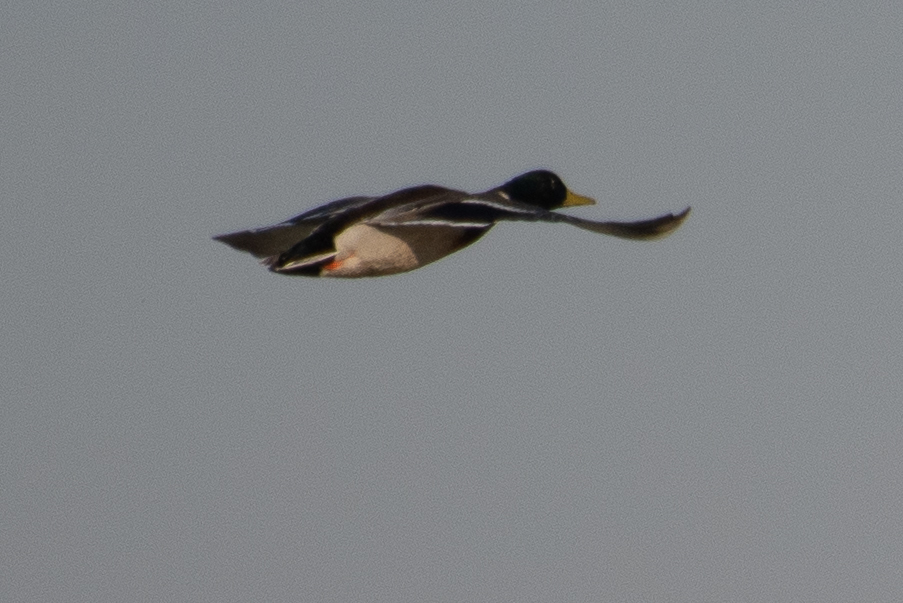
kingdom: Animalia
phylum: Chordata
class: Aves
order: Anseriformes
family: Anatidae
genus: Anas
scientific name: Anas platyrhynchos
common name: Mallard
